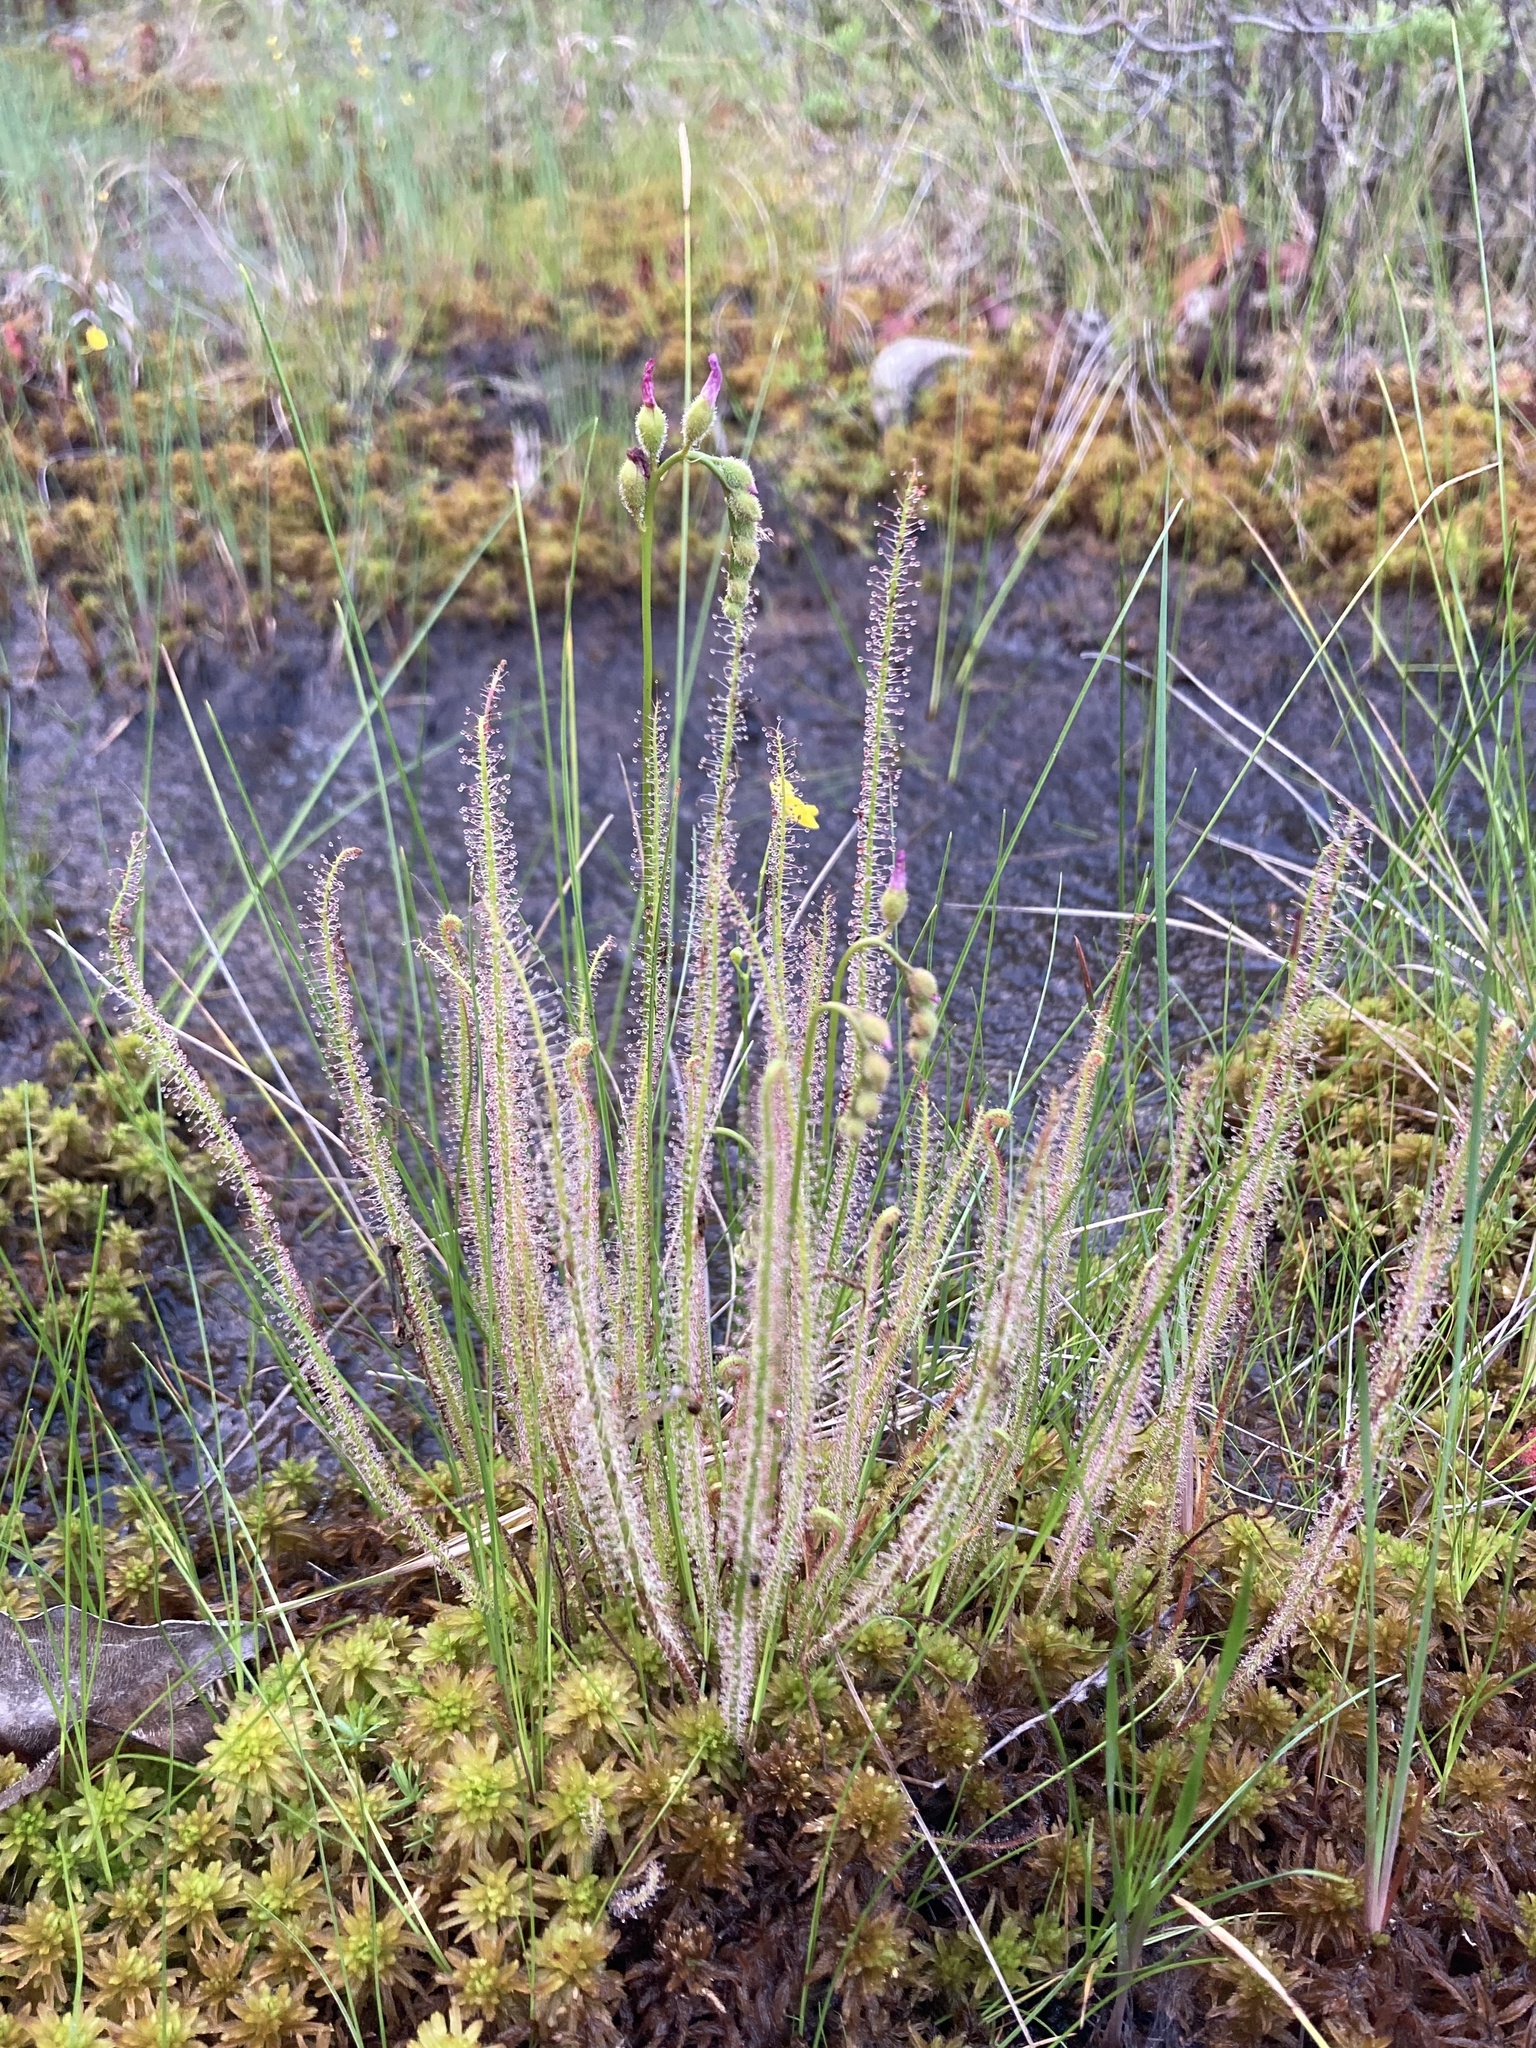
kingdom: Plantae
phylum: Tracheophyta
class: Magnoliopsida
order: Caryophyllales
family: Droseraceae
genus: Drosera
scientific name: Drosera filiformis
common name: Dew-thread
